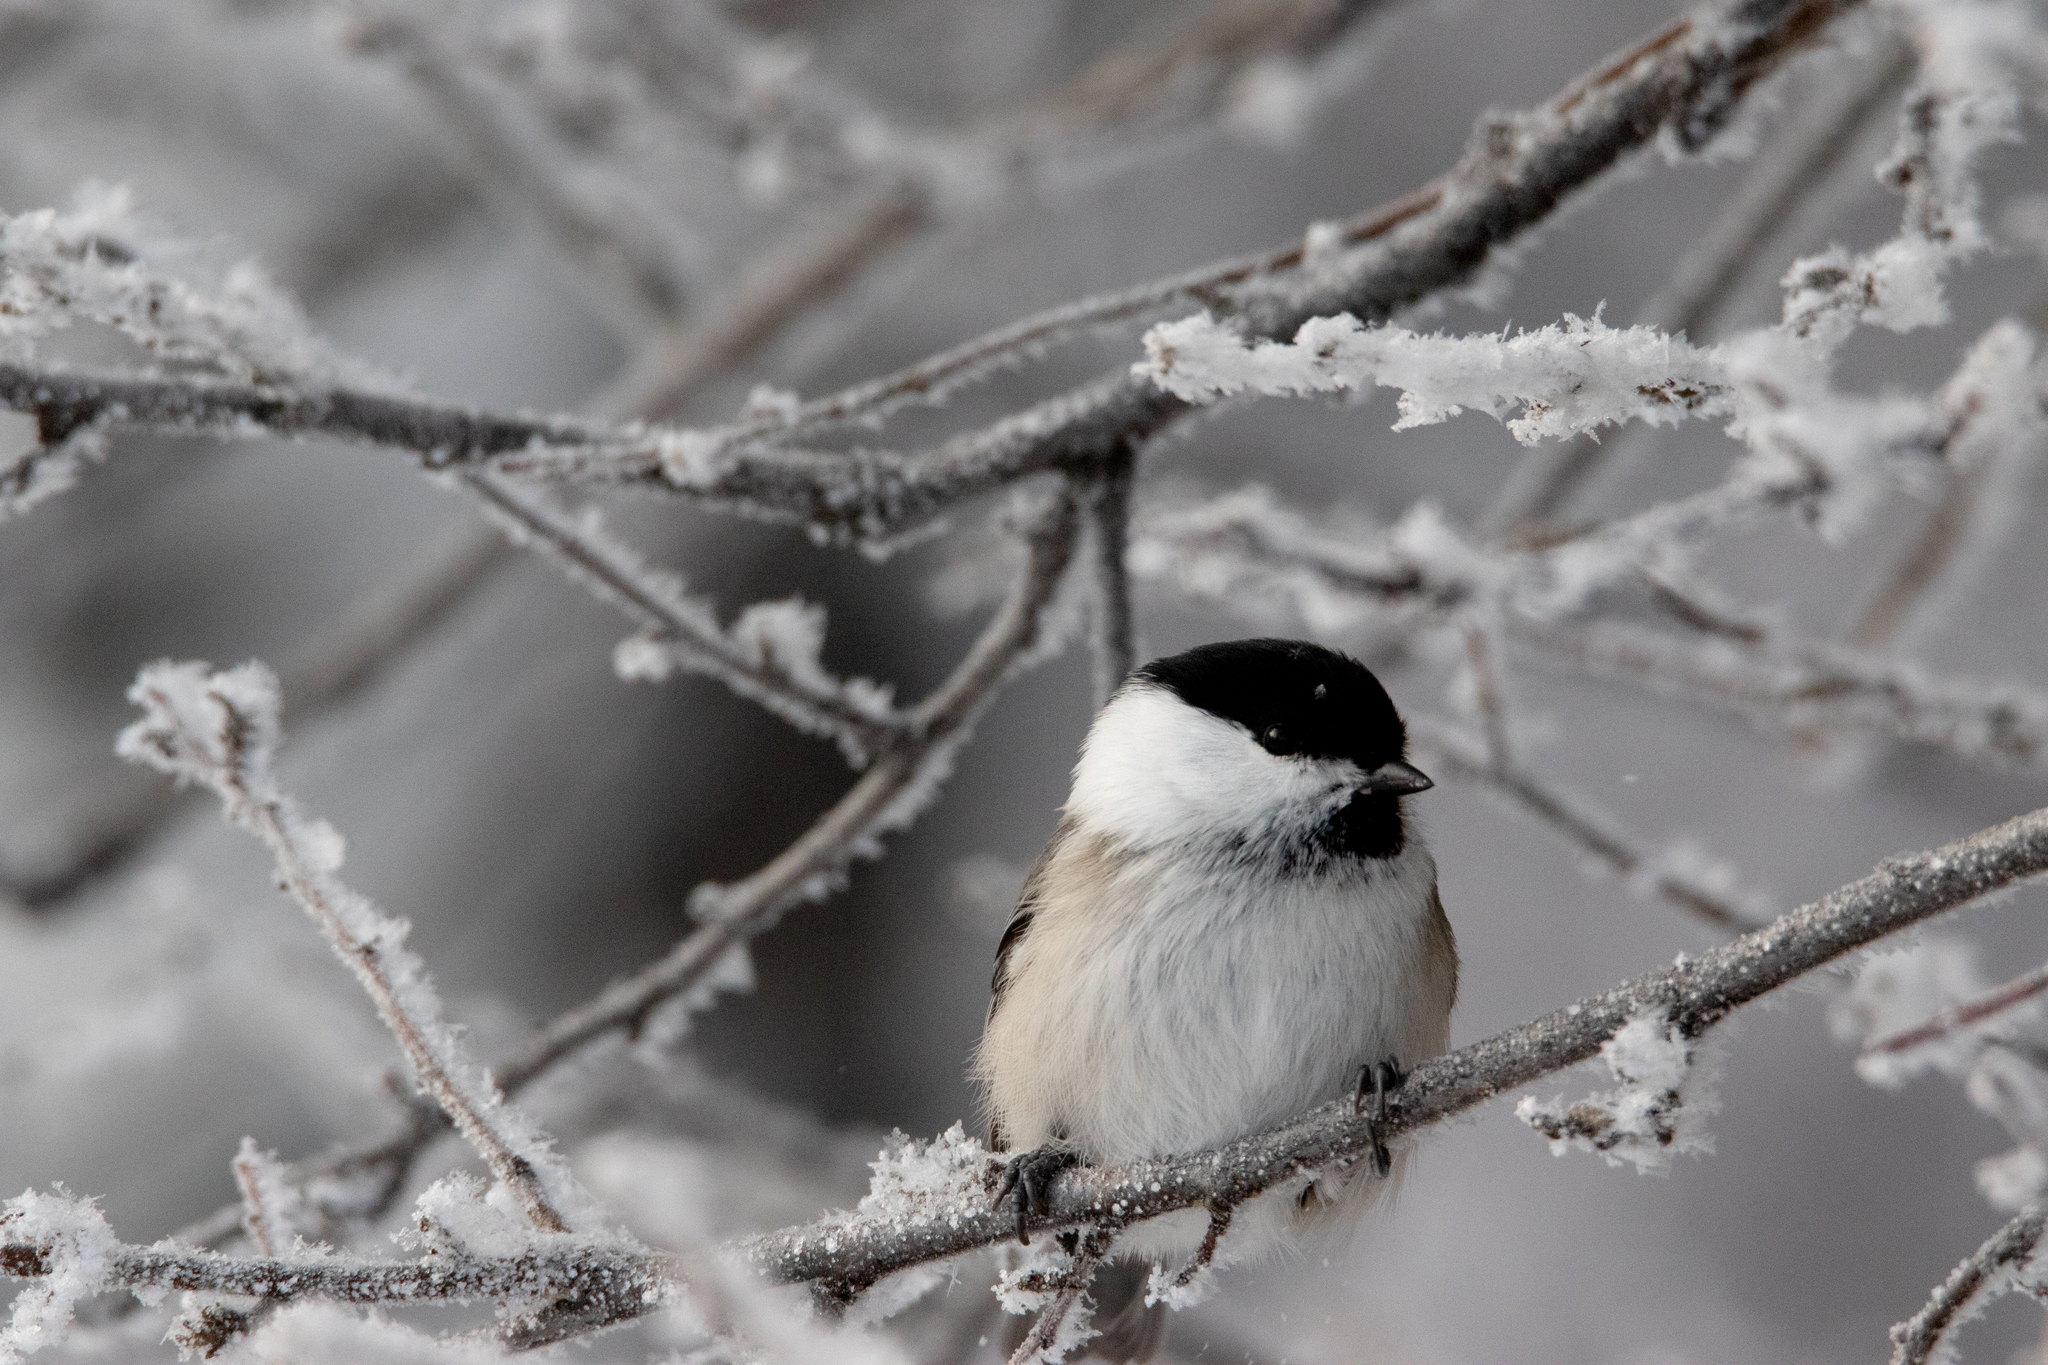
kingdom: Animalia
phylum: Chordata
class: Aves
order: Passeriformes
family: Paridae
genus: Poecile
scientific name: Poecile montanus
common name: Willow tit
